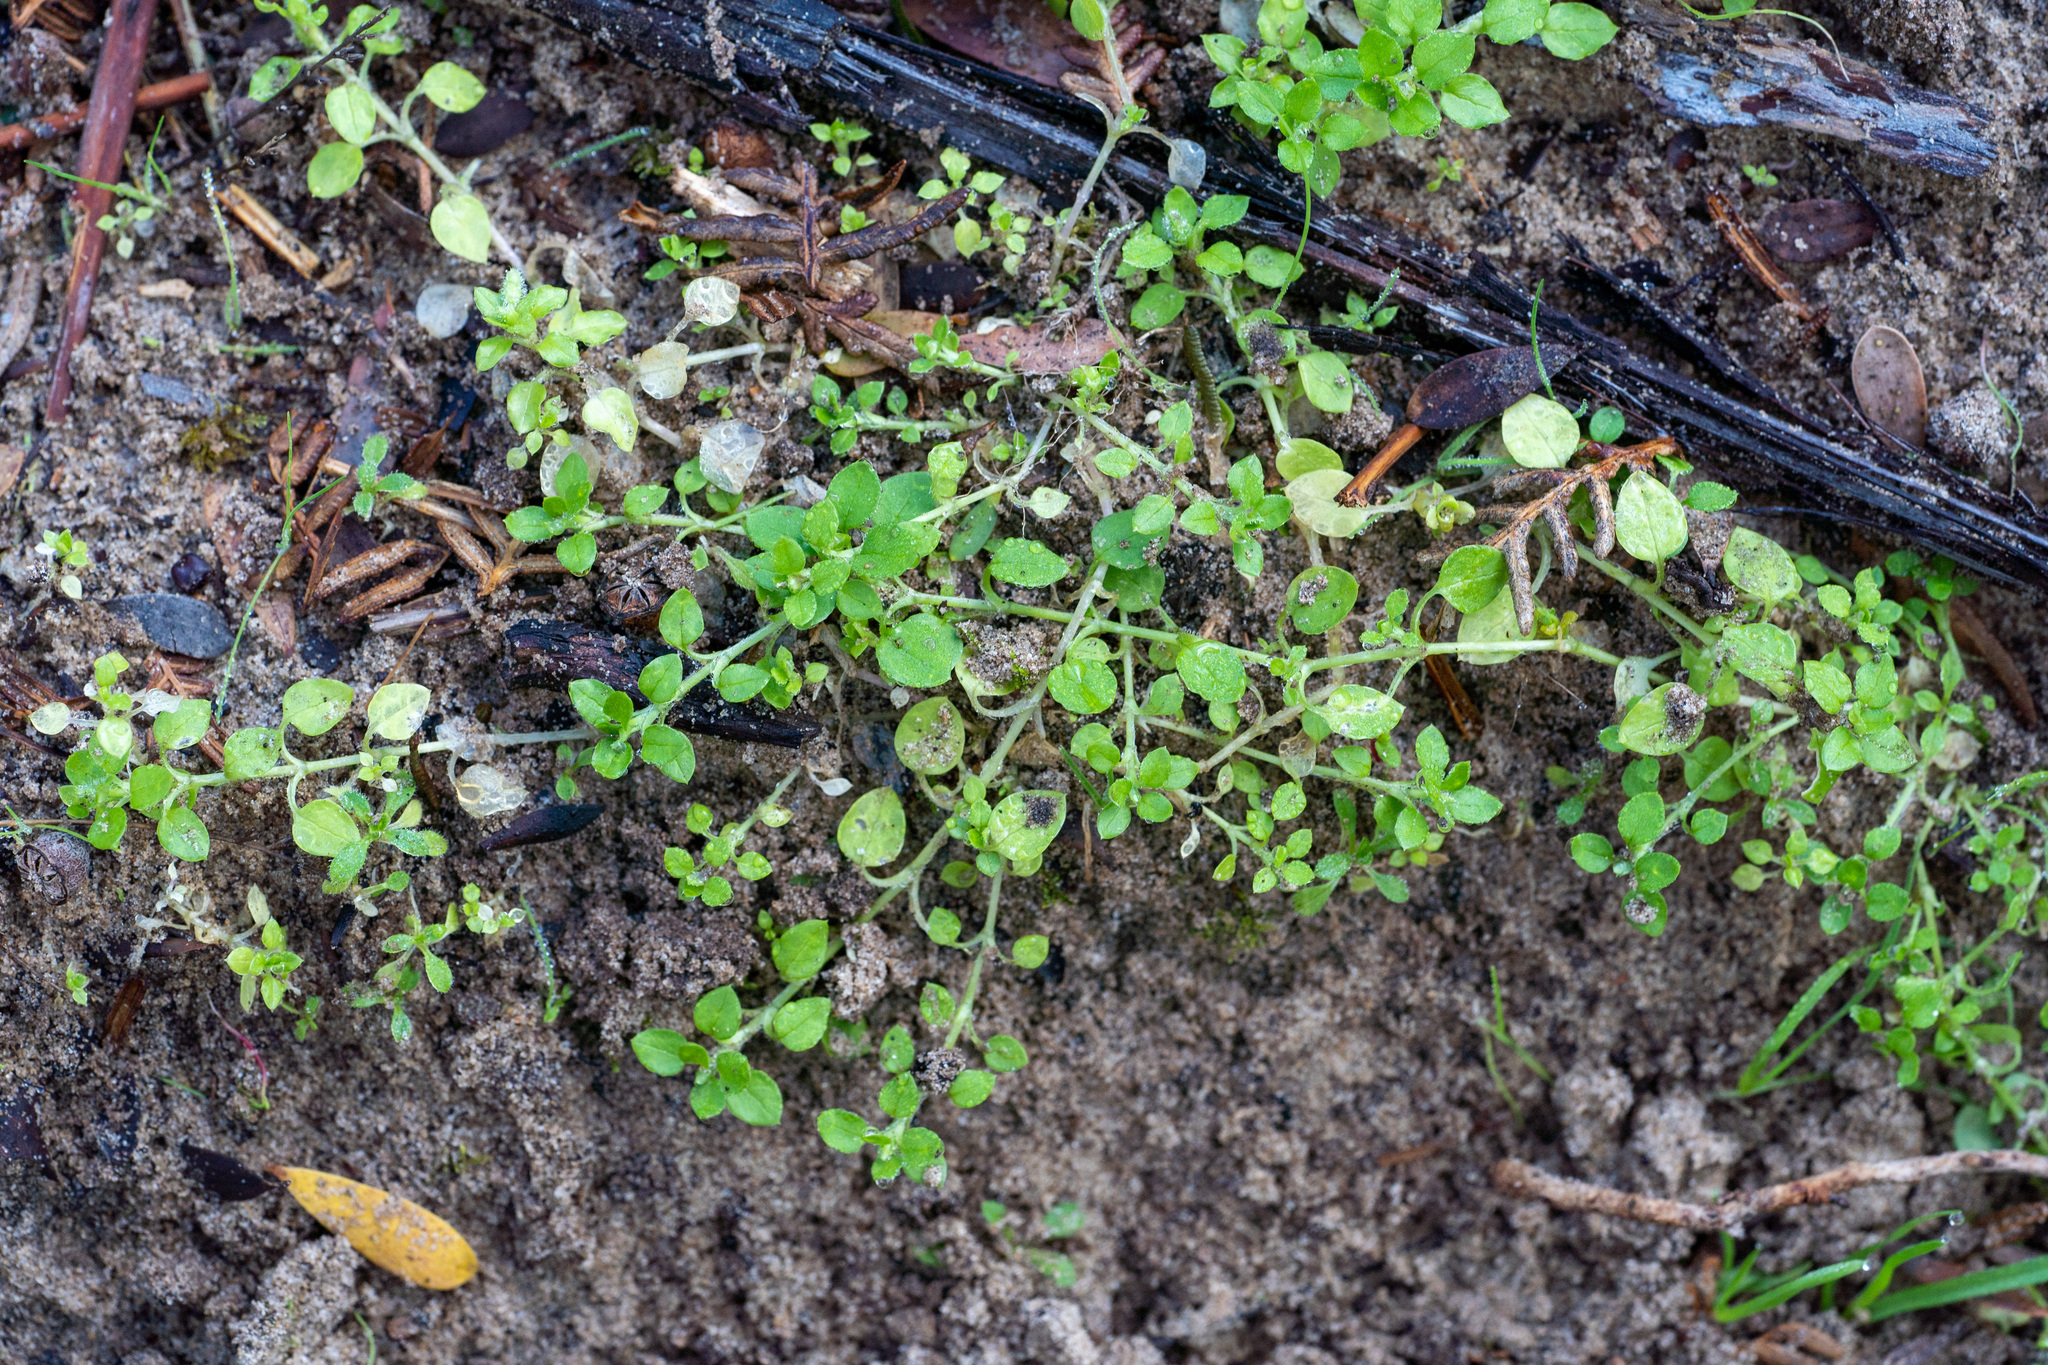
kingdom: Plantae
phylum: Tracheophyta
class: Magnoliopsida
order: Caryophyllales
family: Caryophyllaceae
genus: Stellaria
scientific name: Stellaria media
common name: Common chickweed
